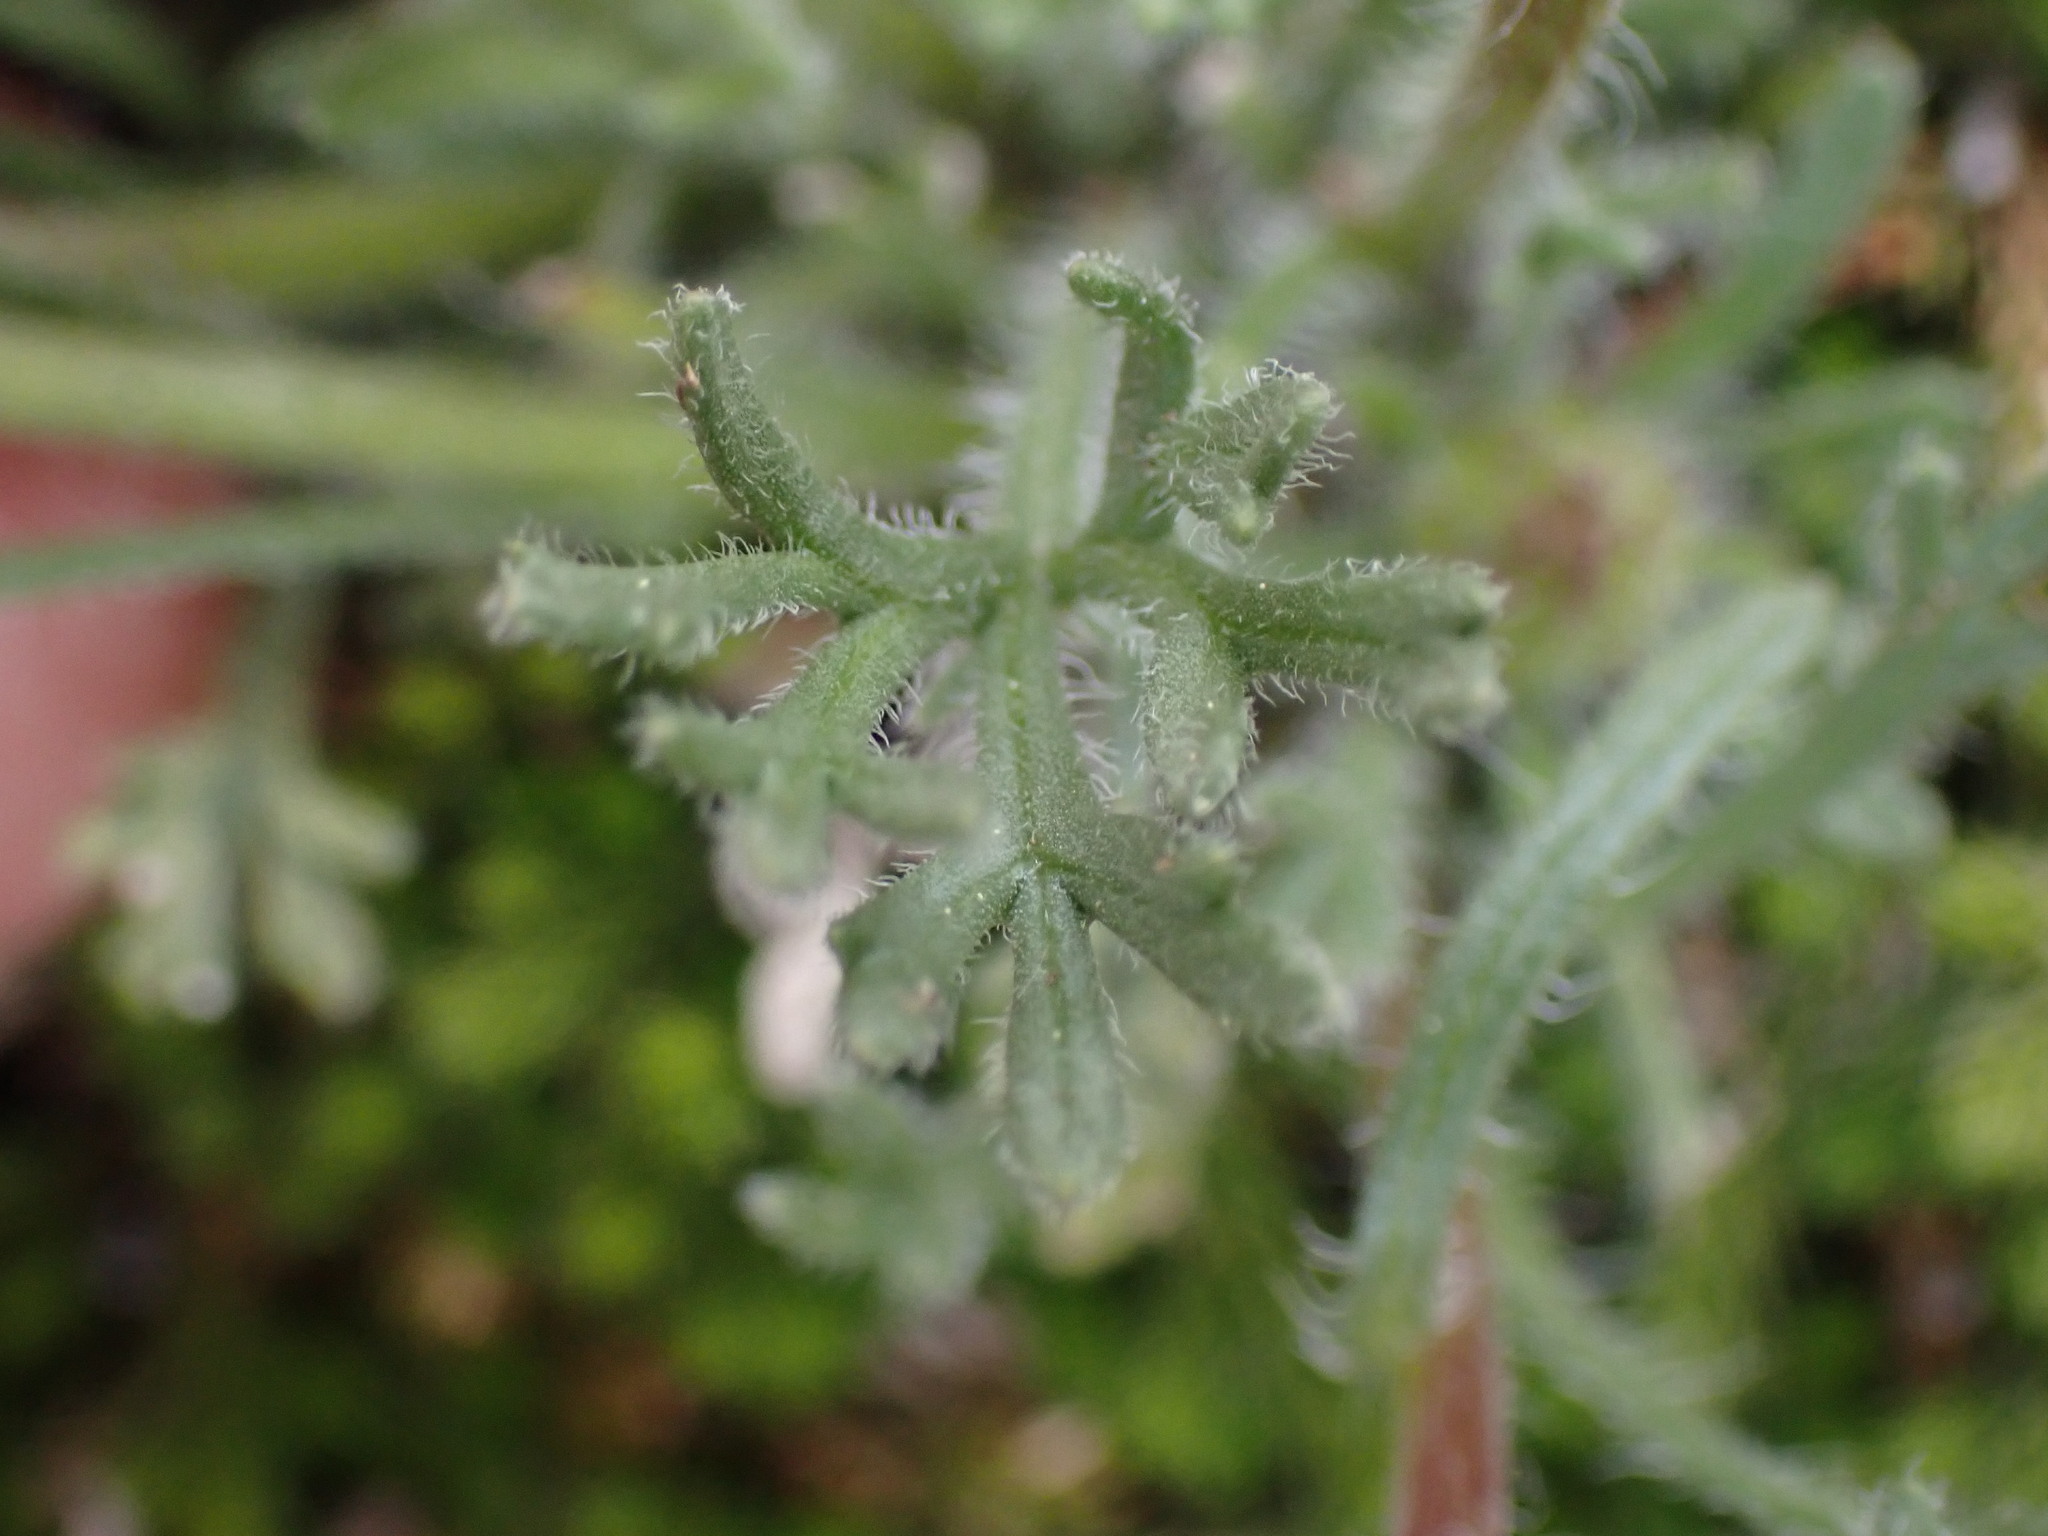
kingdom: Plantae
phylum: Tracheophyta
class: Magnoliopsida
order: Asterales
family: Asteraceae
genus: Erigeron
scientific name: Erigeron compositus
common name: Dwarf mountain fleabane
